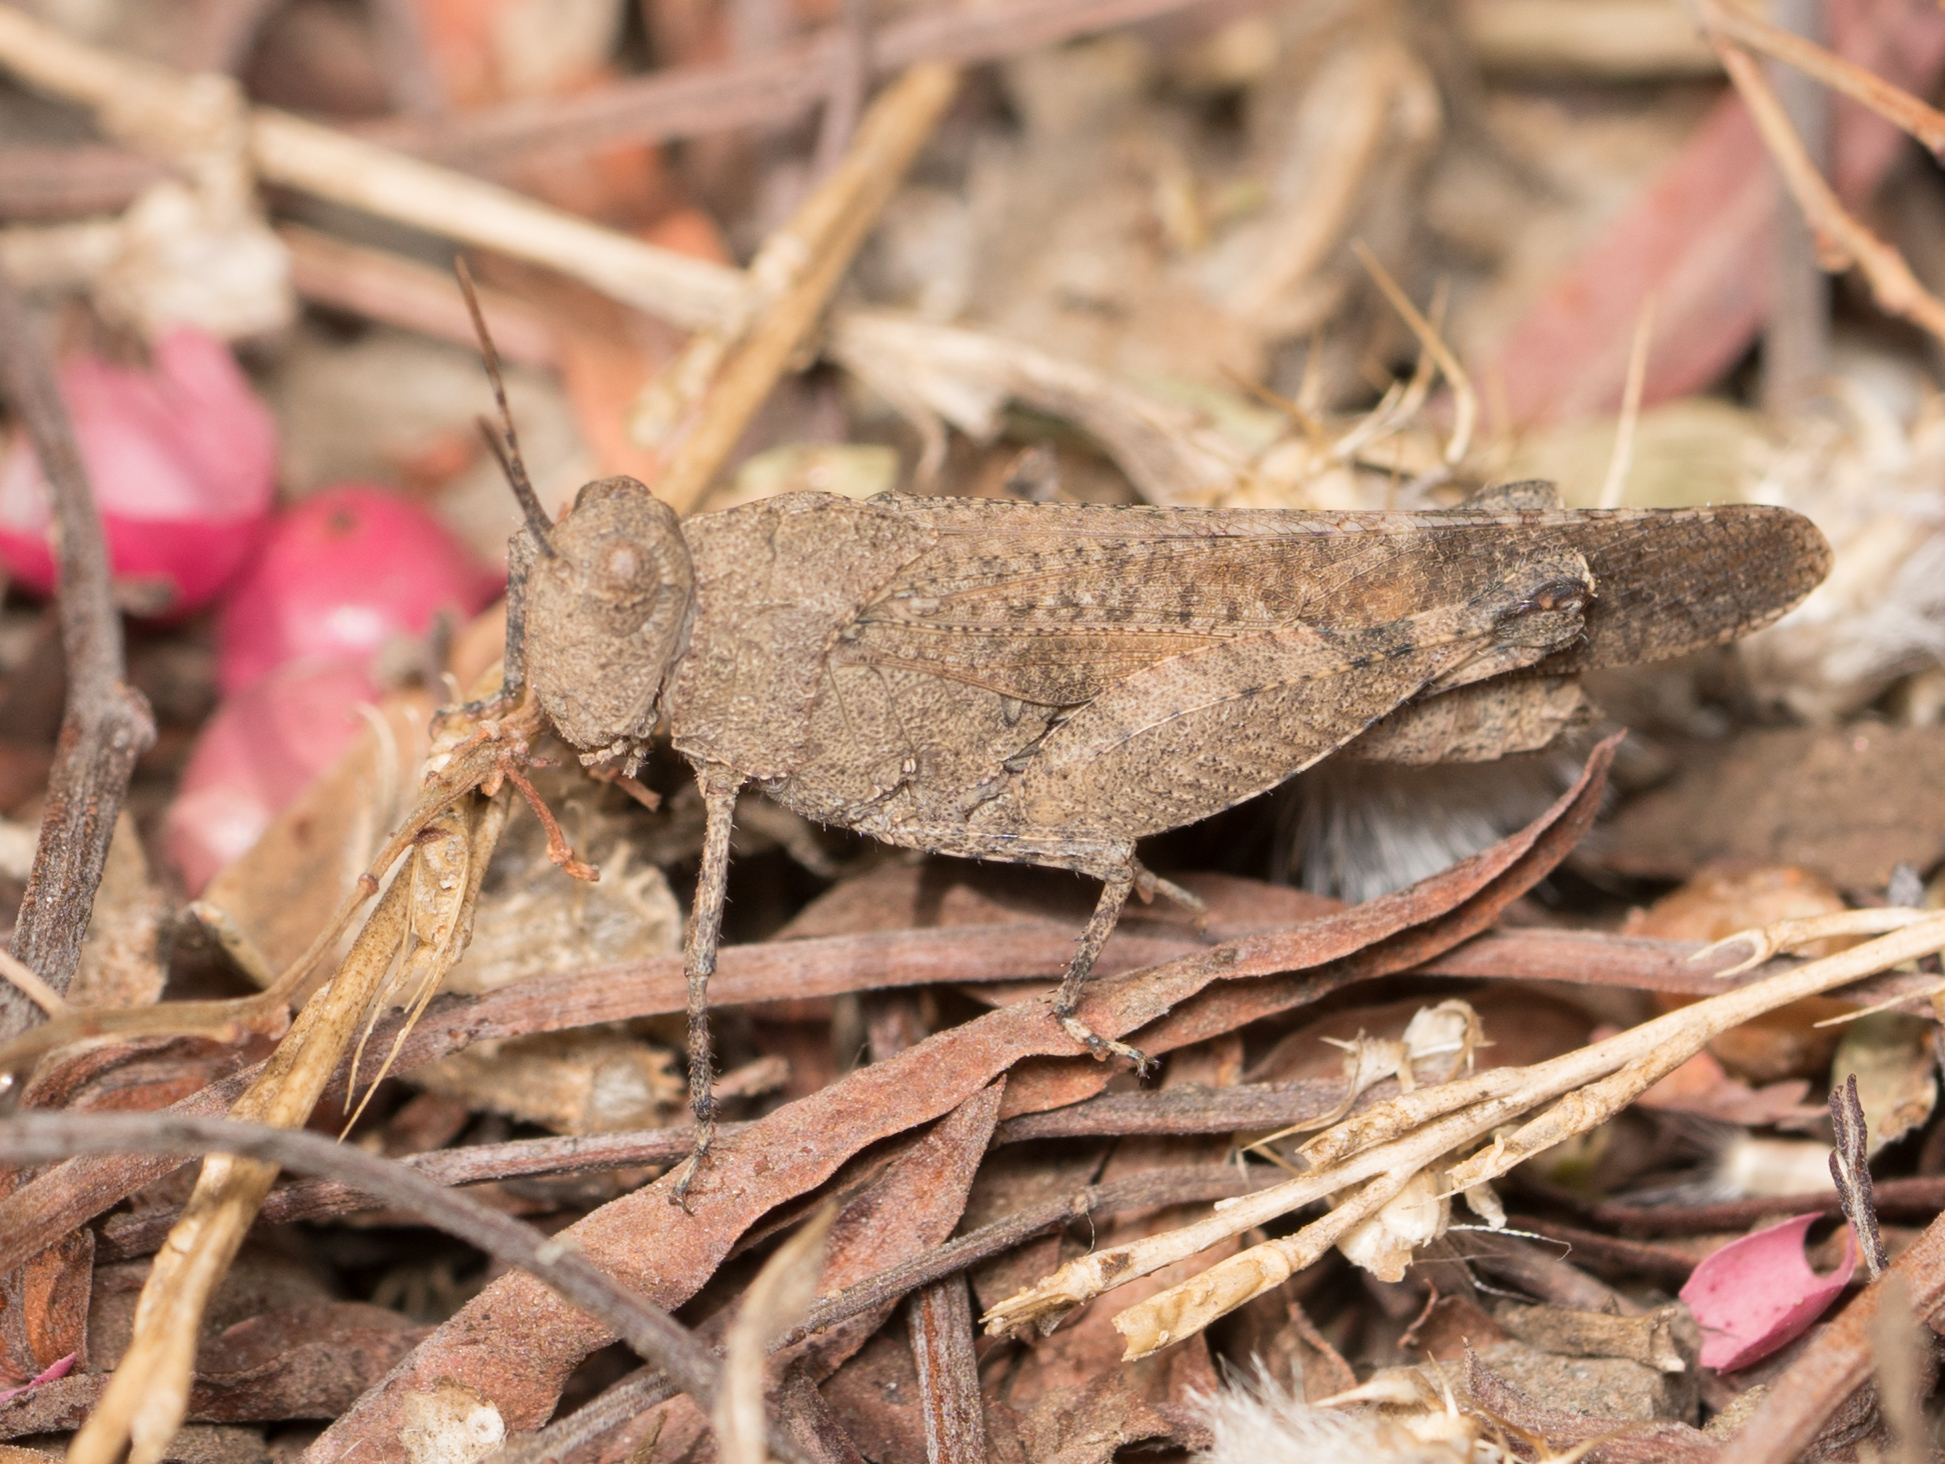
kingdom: Animalia
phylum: Arthropoda
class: Insecta
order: Orthoptera
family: Acrididae
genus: Lactista
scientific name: Lactista gibbosus
